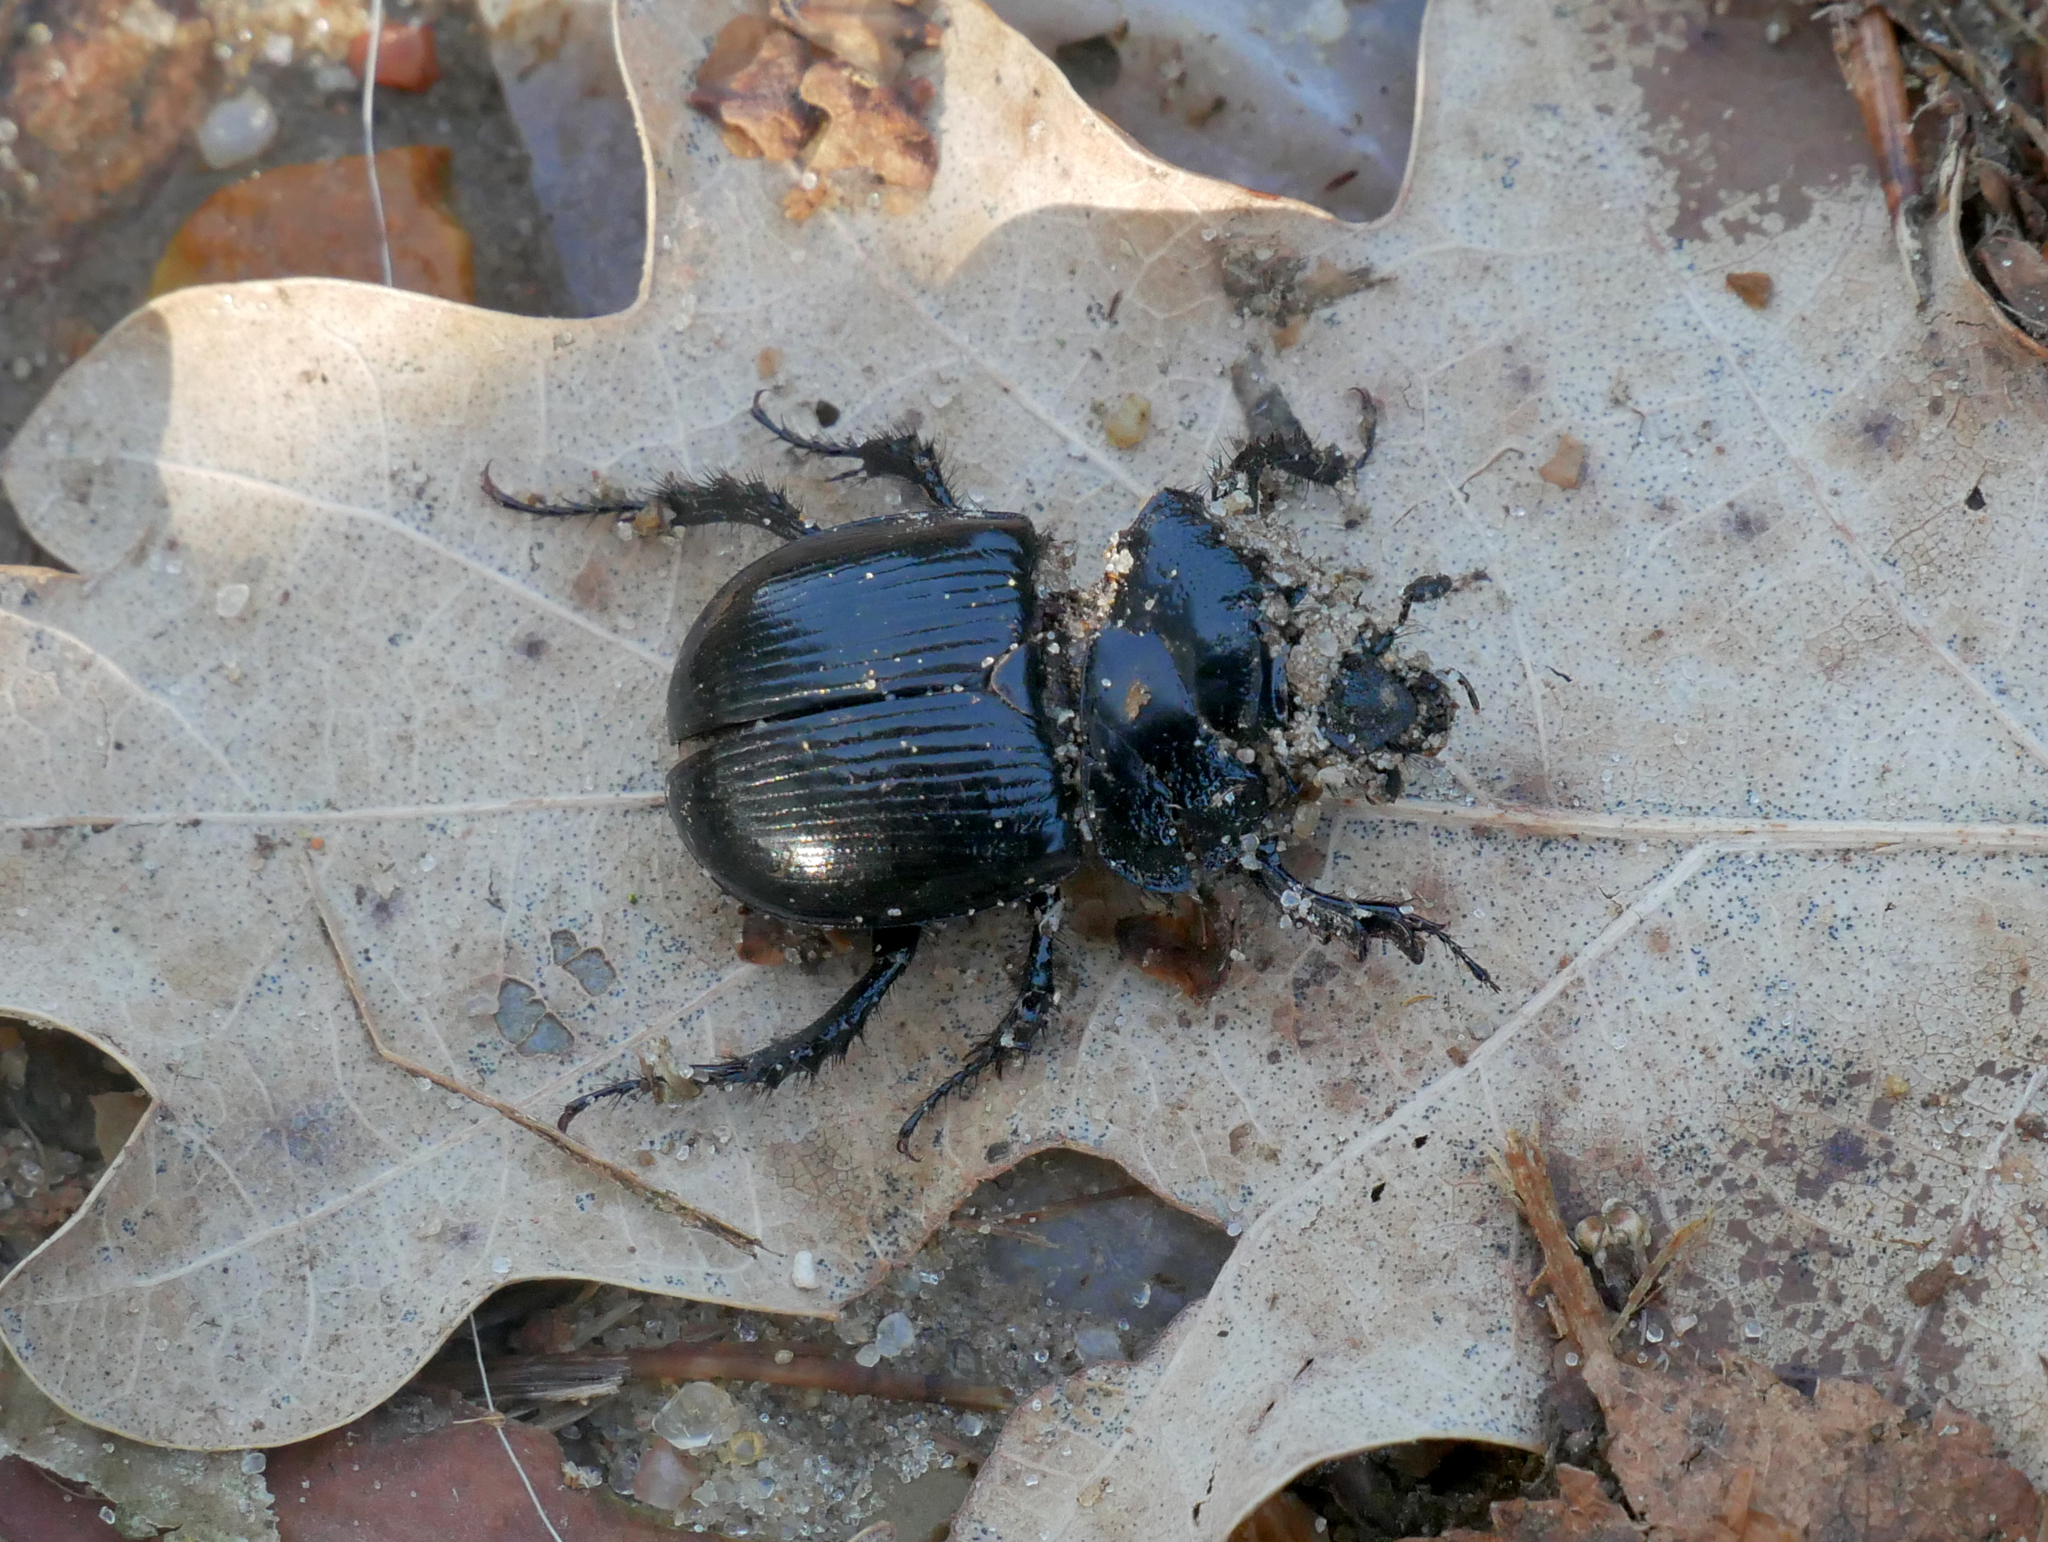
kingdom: Animalia
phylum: Arthropoda
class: Insecta
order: Coleoptera
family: Geotrupidae
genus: Typhaeus
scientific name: Typhaeus typhoeus
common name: Minotaur beetle
